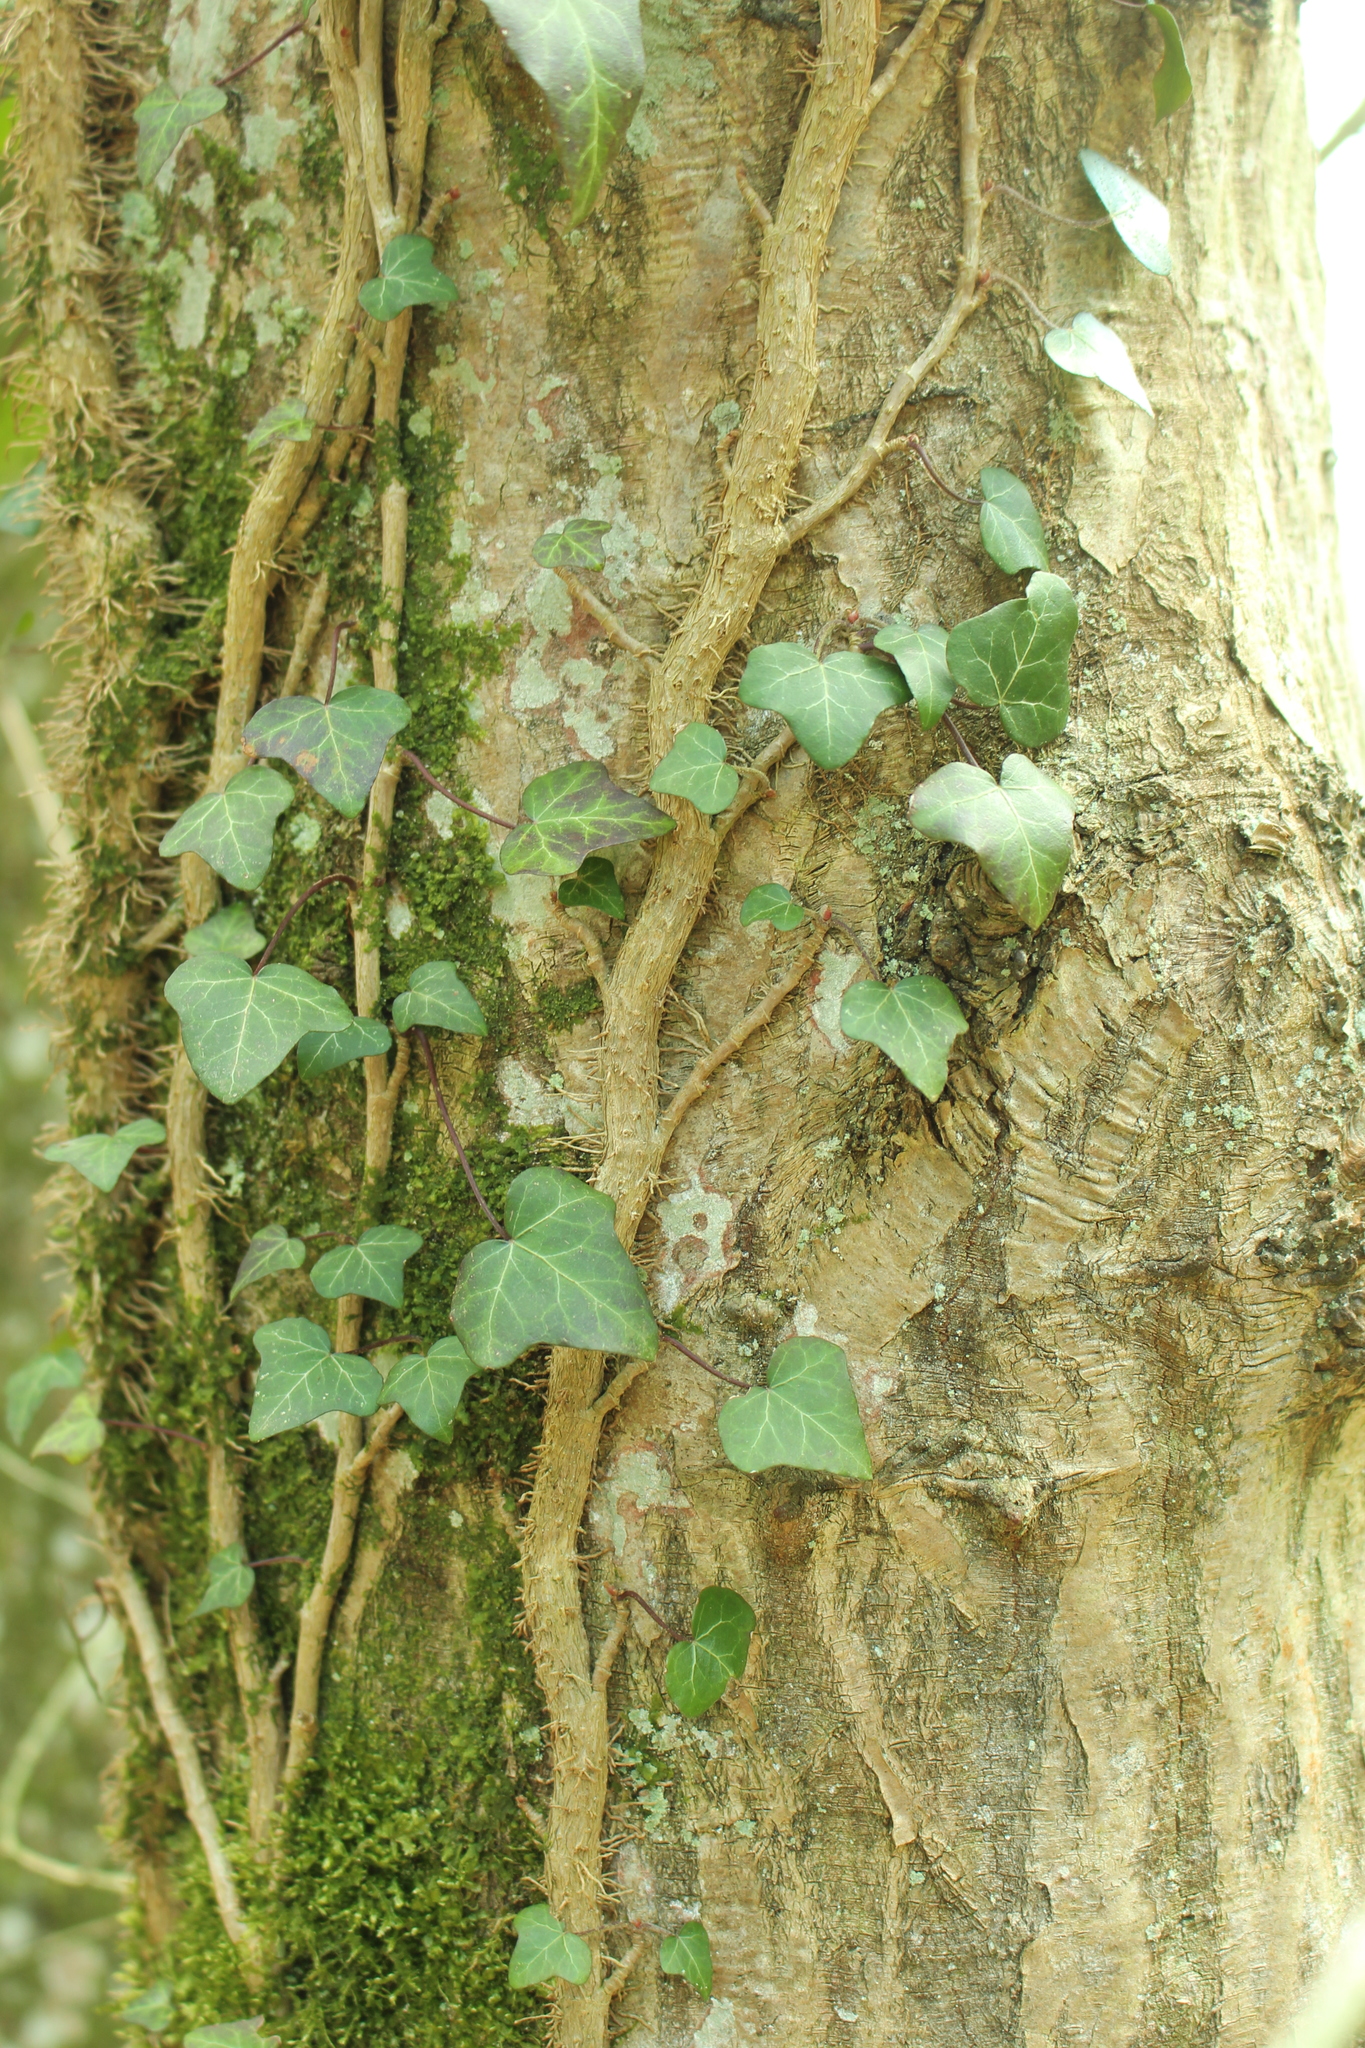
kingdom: Plantae
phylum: Tracheophyta
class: Magnoliopsida
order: Apiales
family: Araliaceae
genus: Hedera
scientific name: Hedera helix
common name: Ivy
